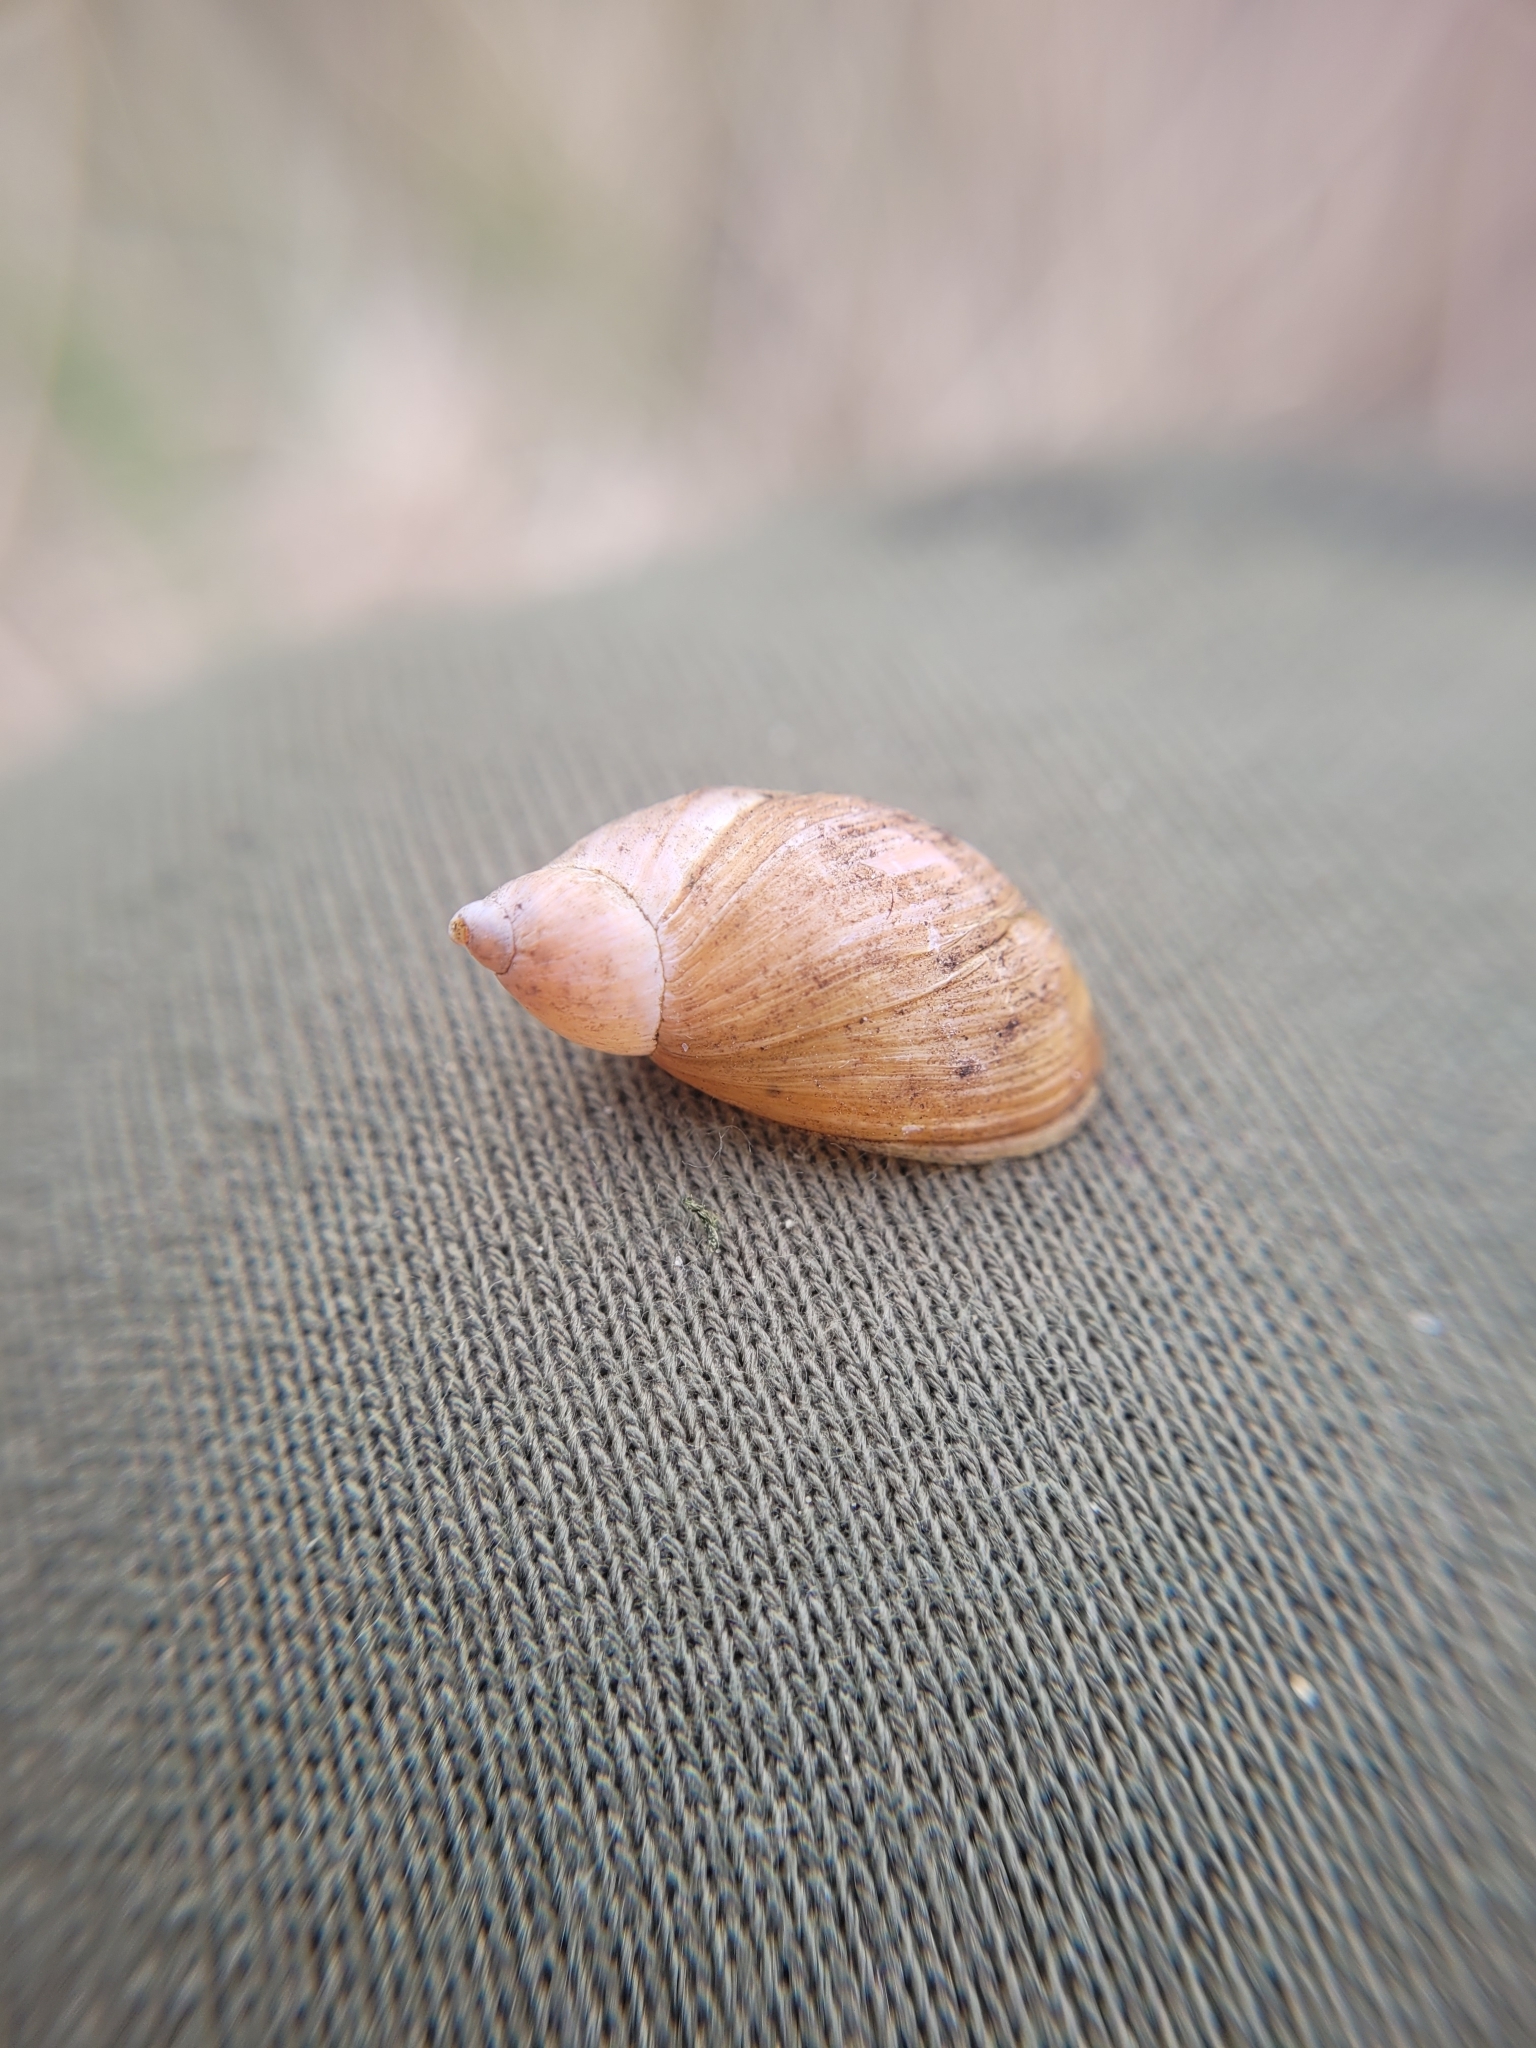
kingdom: Animalia
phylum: Mollusca
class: Gastropoda
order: Stylommatophora
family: Succineidae
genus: Succinea
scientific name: Succinea putris
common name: European ambersnail
